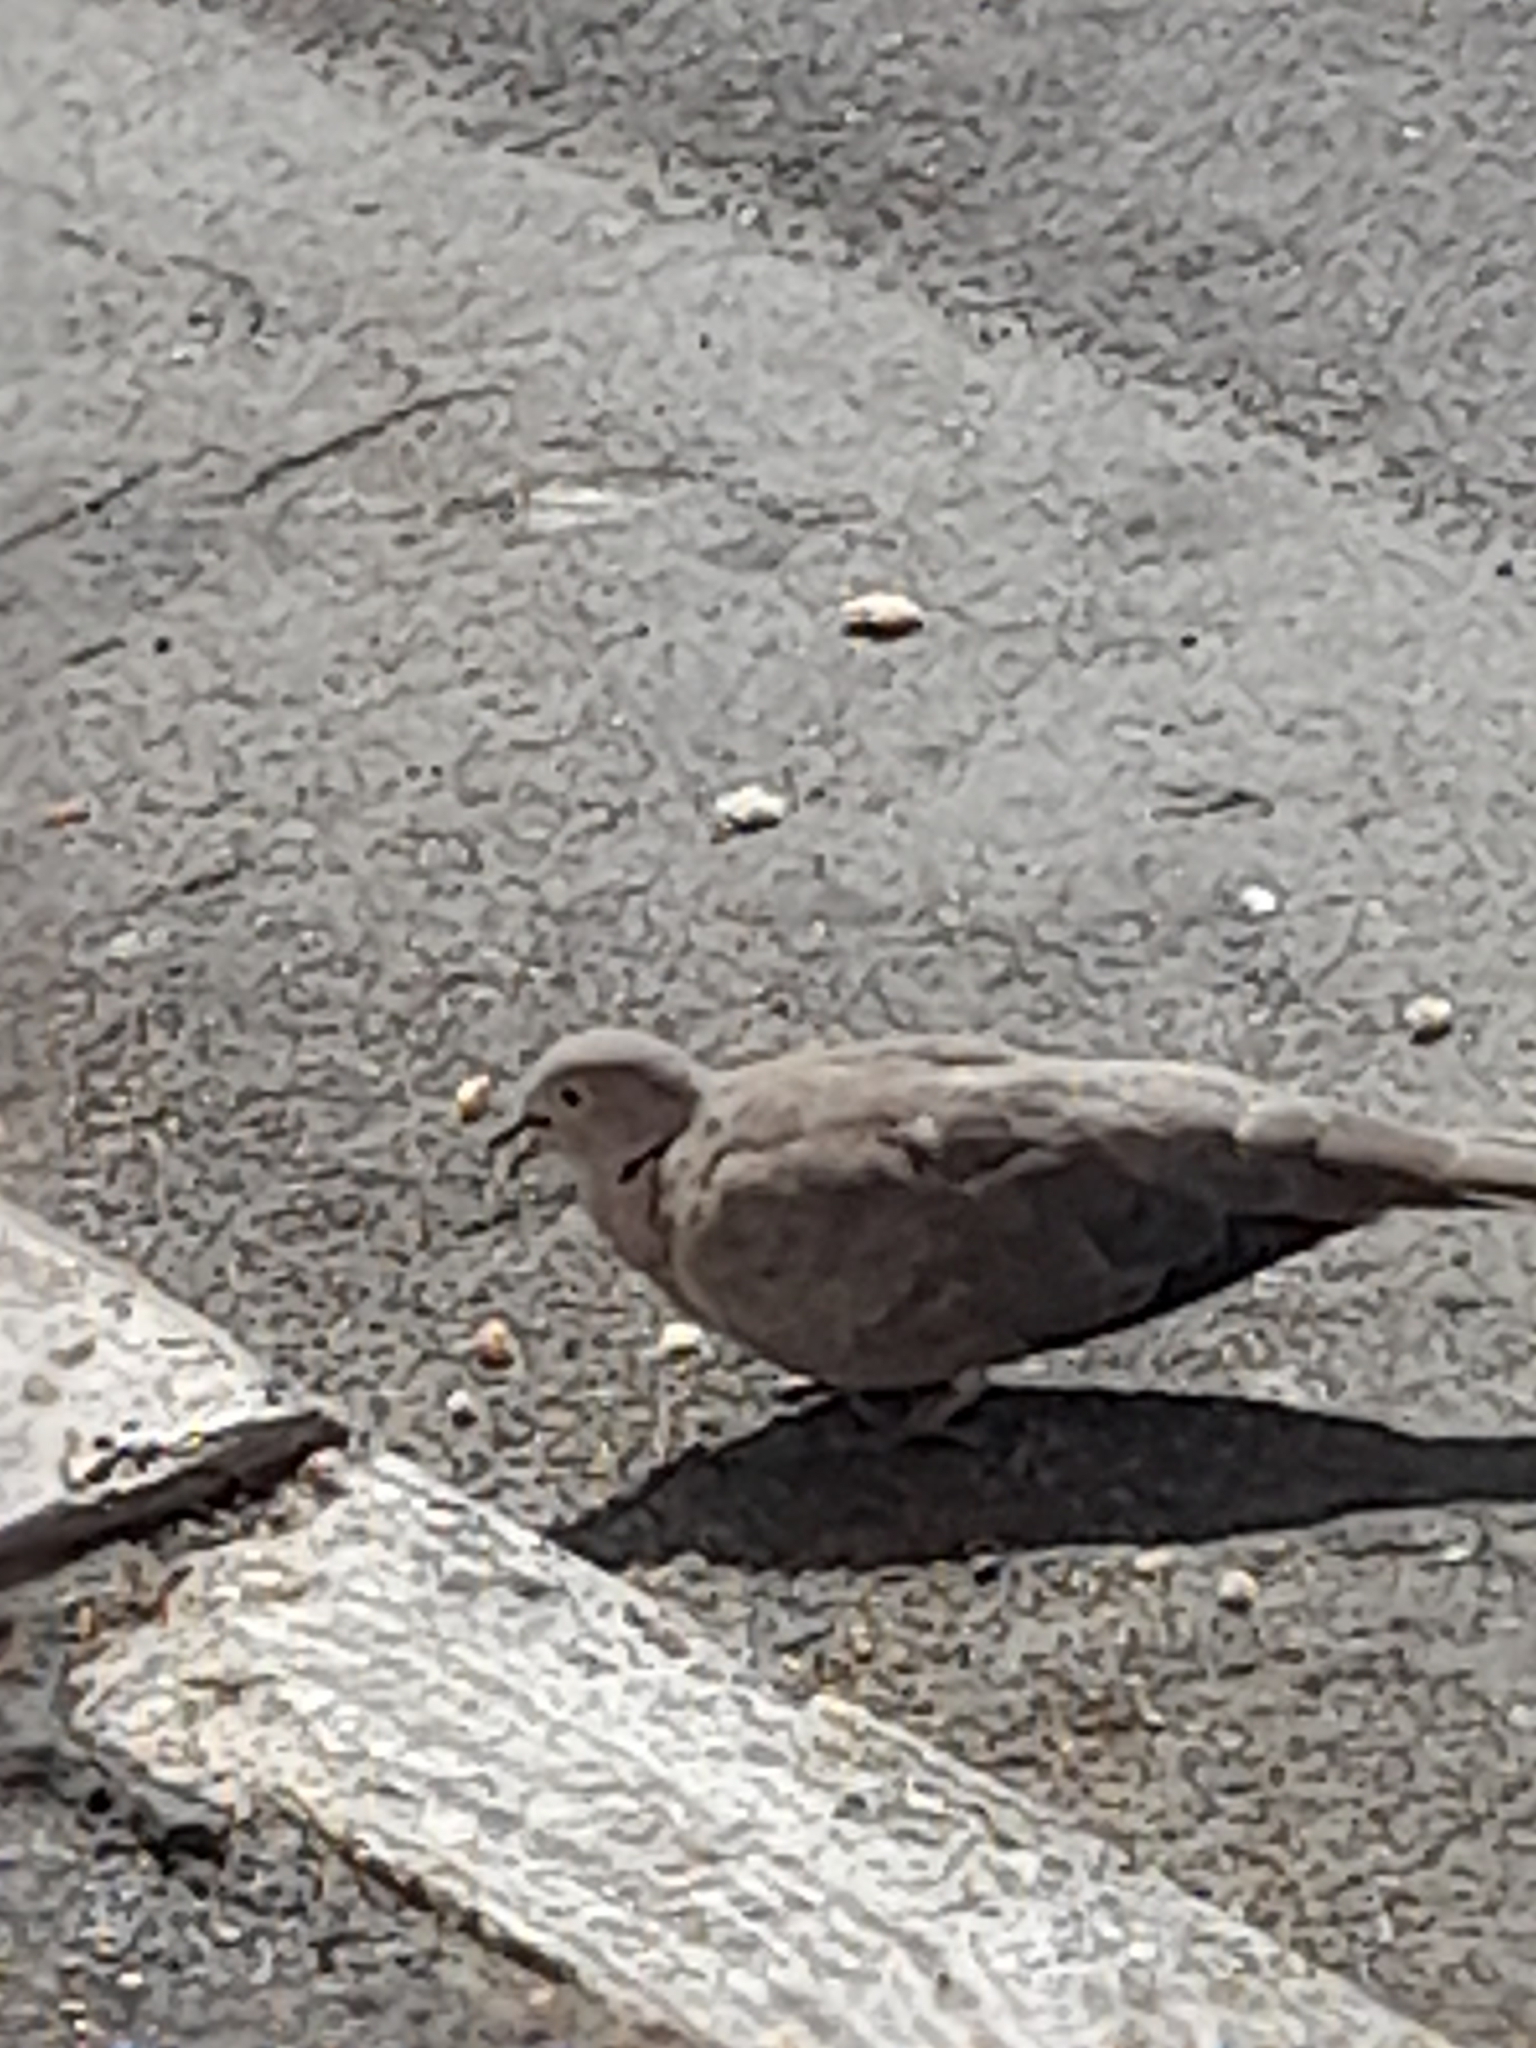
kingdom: Animalia
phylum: Chordata
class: Aves
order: Columbiformes
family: Columbidae
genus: Streptopelia
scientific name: Streptopelia decaocto
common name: Eurasian collared dove
